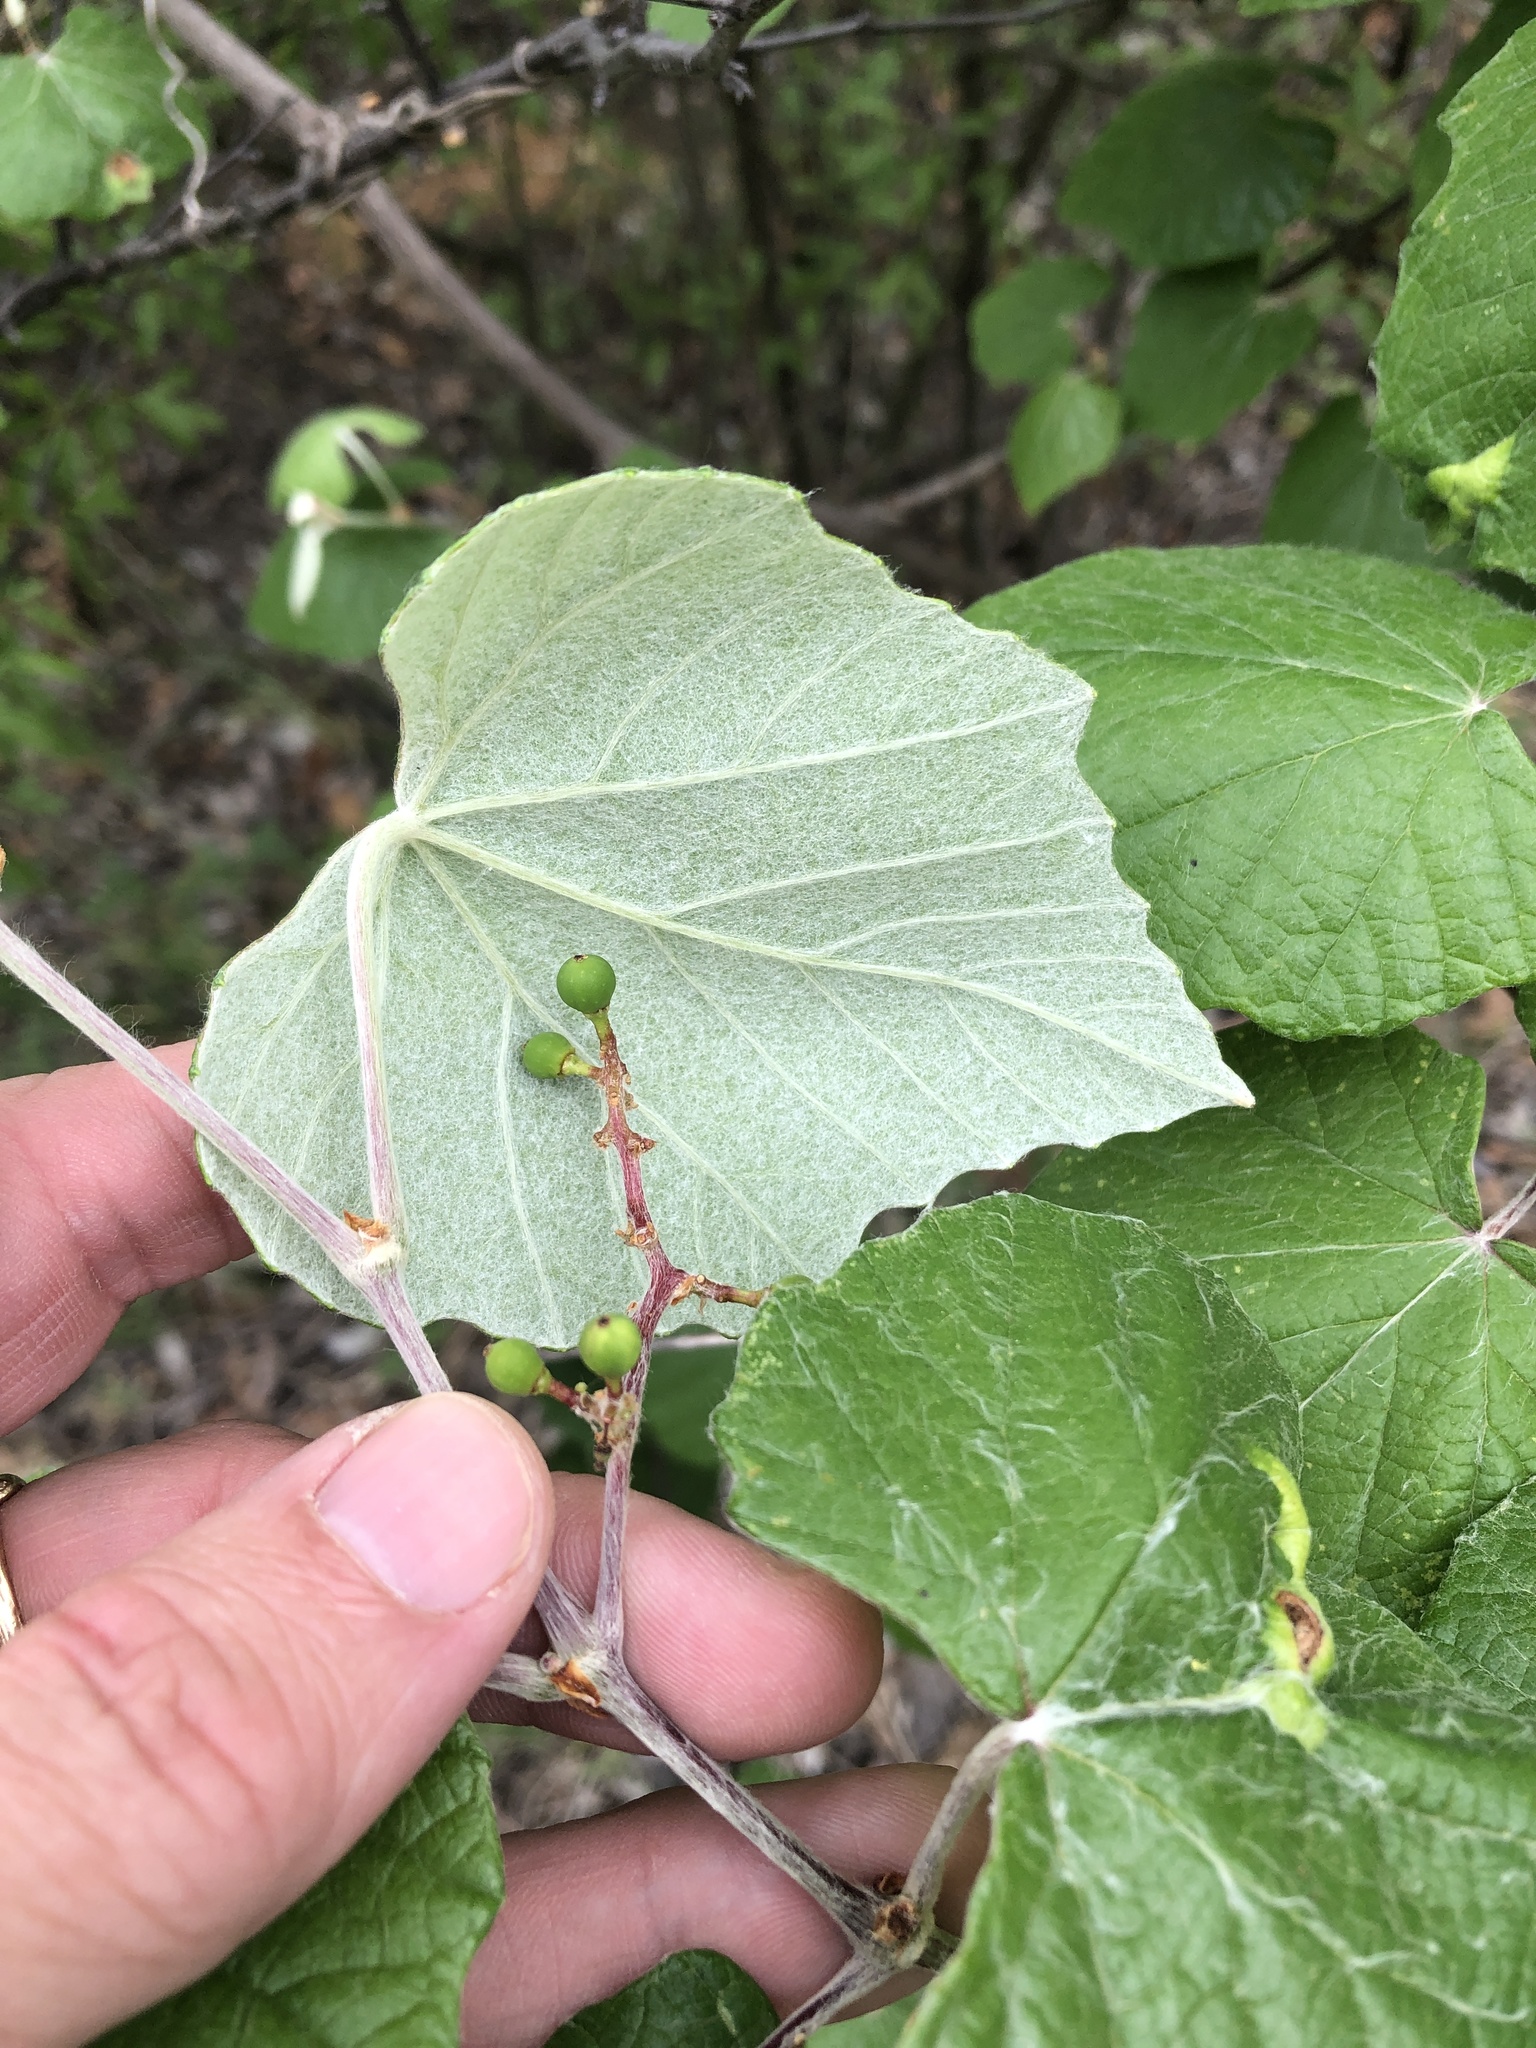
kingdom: Plantae
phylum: Tracheophyta
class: Magnoliopsida
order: Vitales
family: Vitaceae
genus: Vitis
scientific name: Vitis mustangensis
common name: Mustang grape
